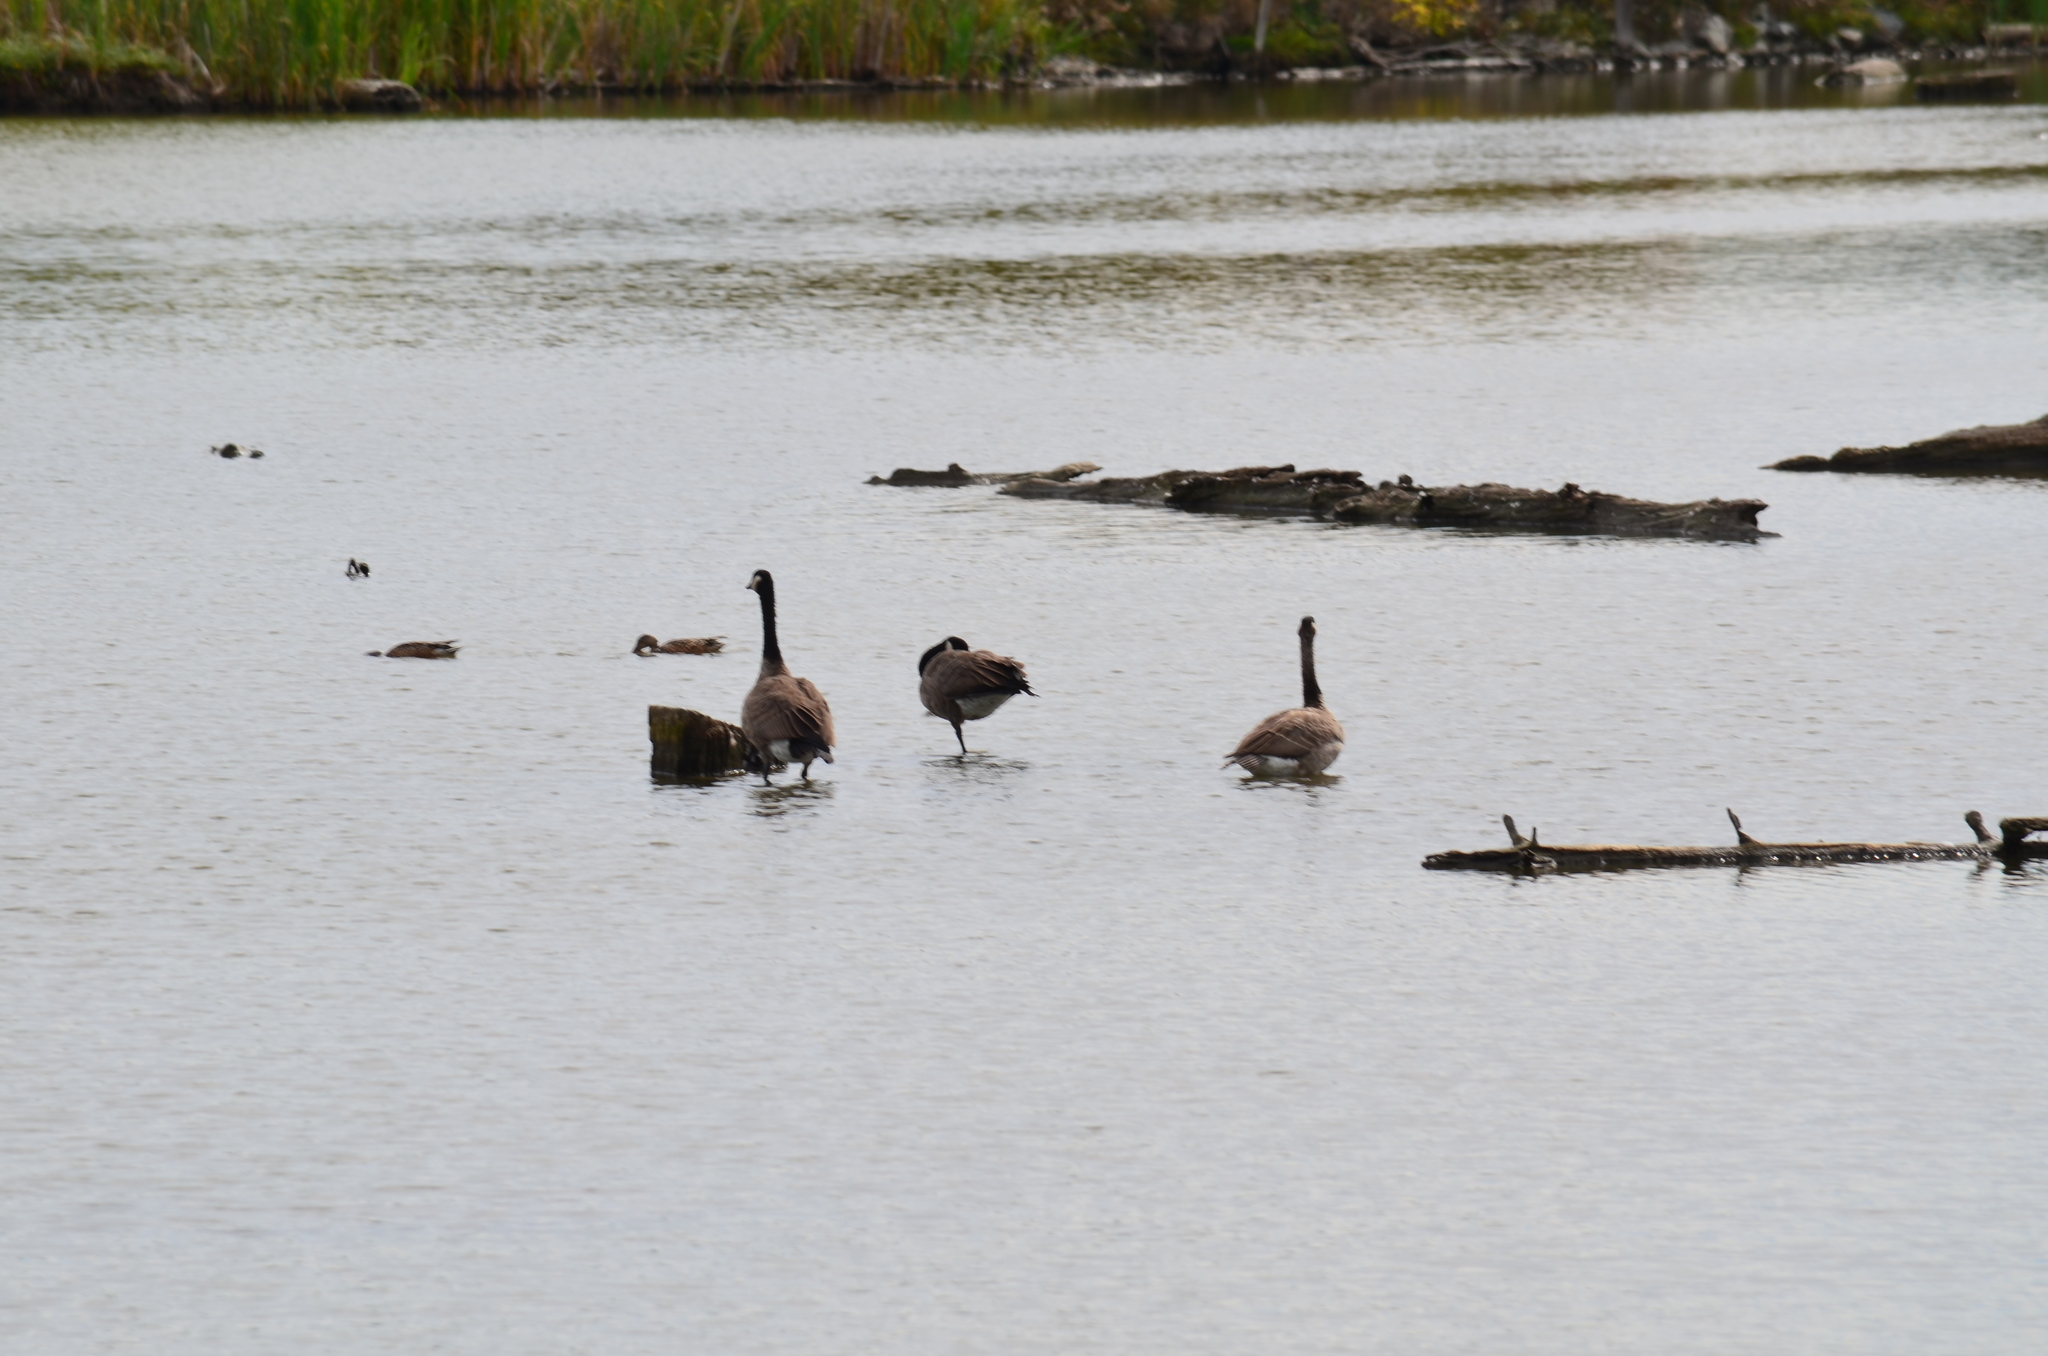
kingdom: Animalia
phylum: Chordata
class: Aves
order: Anseriformes
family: Anatidae
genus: Branta
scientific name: Branta canadensis
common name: Canada goose
